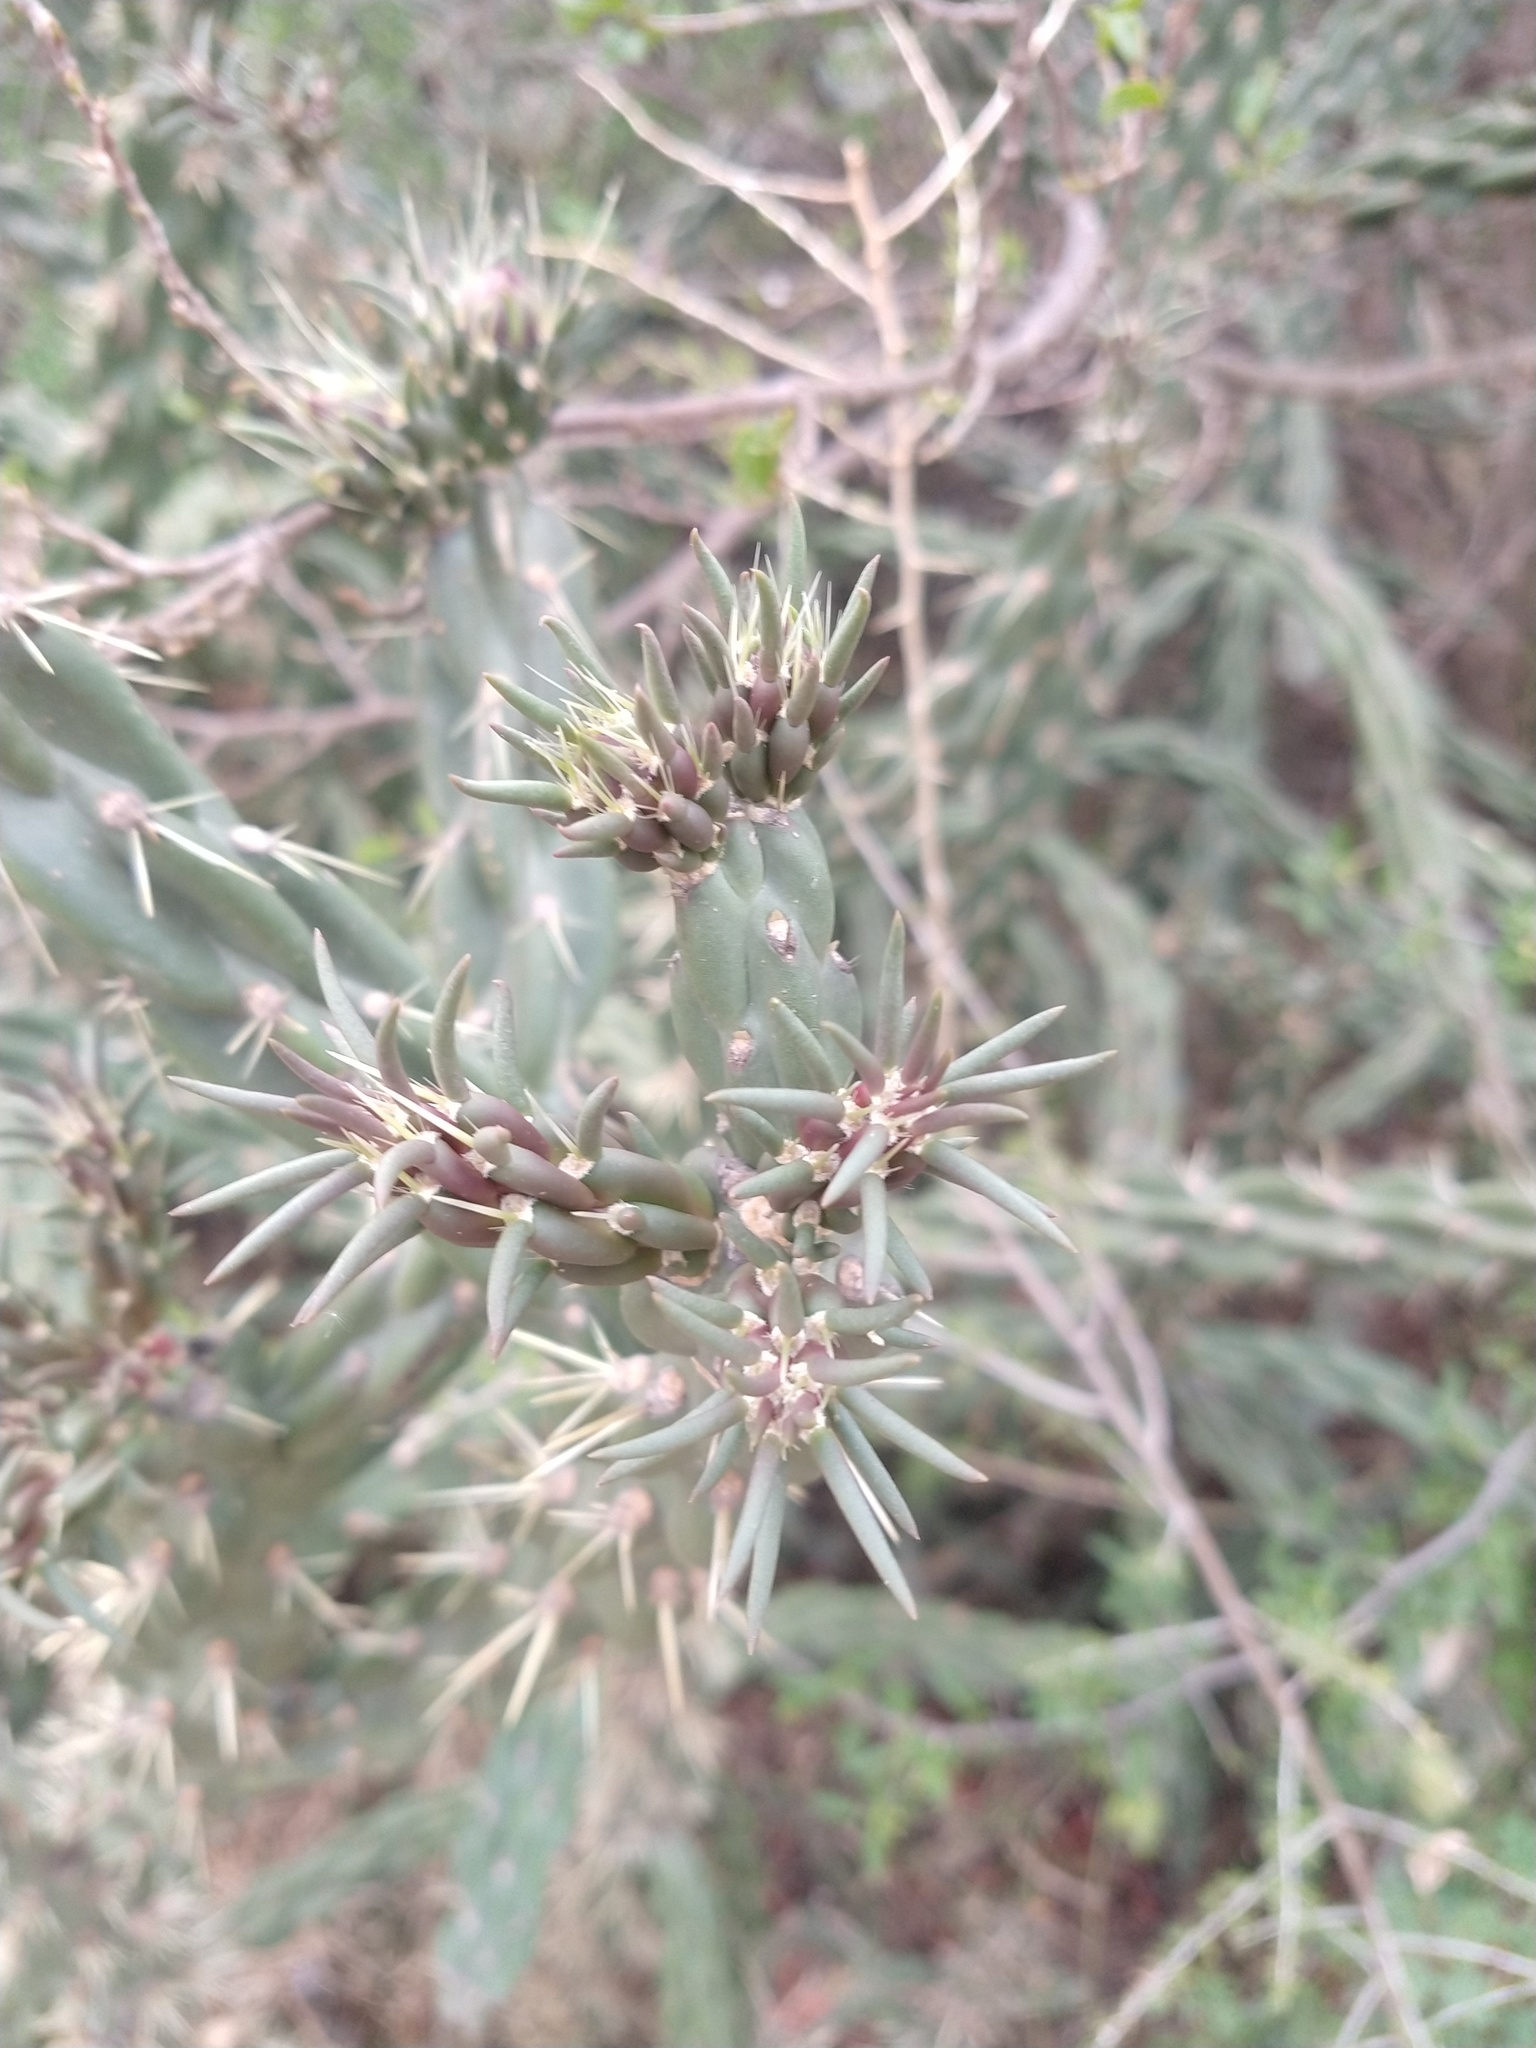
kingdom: Plantae
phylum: Tracheophyta
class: Magnoliopsida
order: Caryophyllales
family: Cactaceae
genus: Cylindropuntia
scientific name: Cylindropuntia fulgida
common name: Jumping cholla
